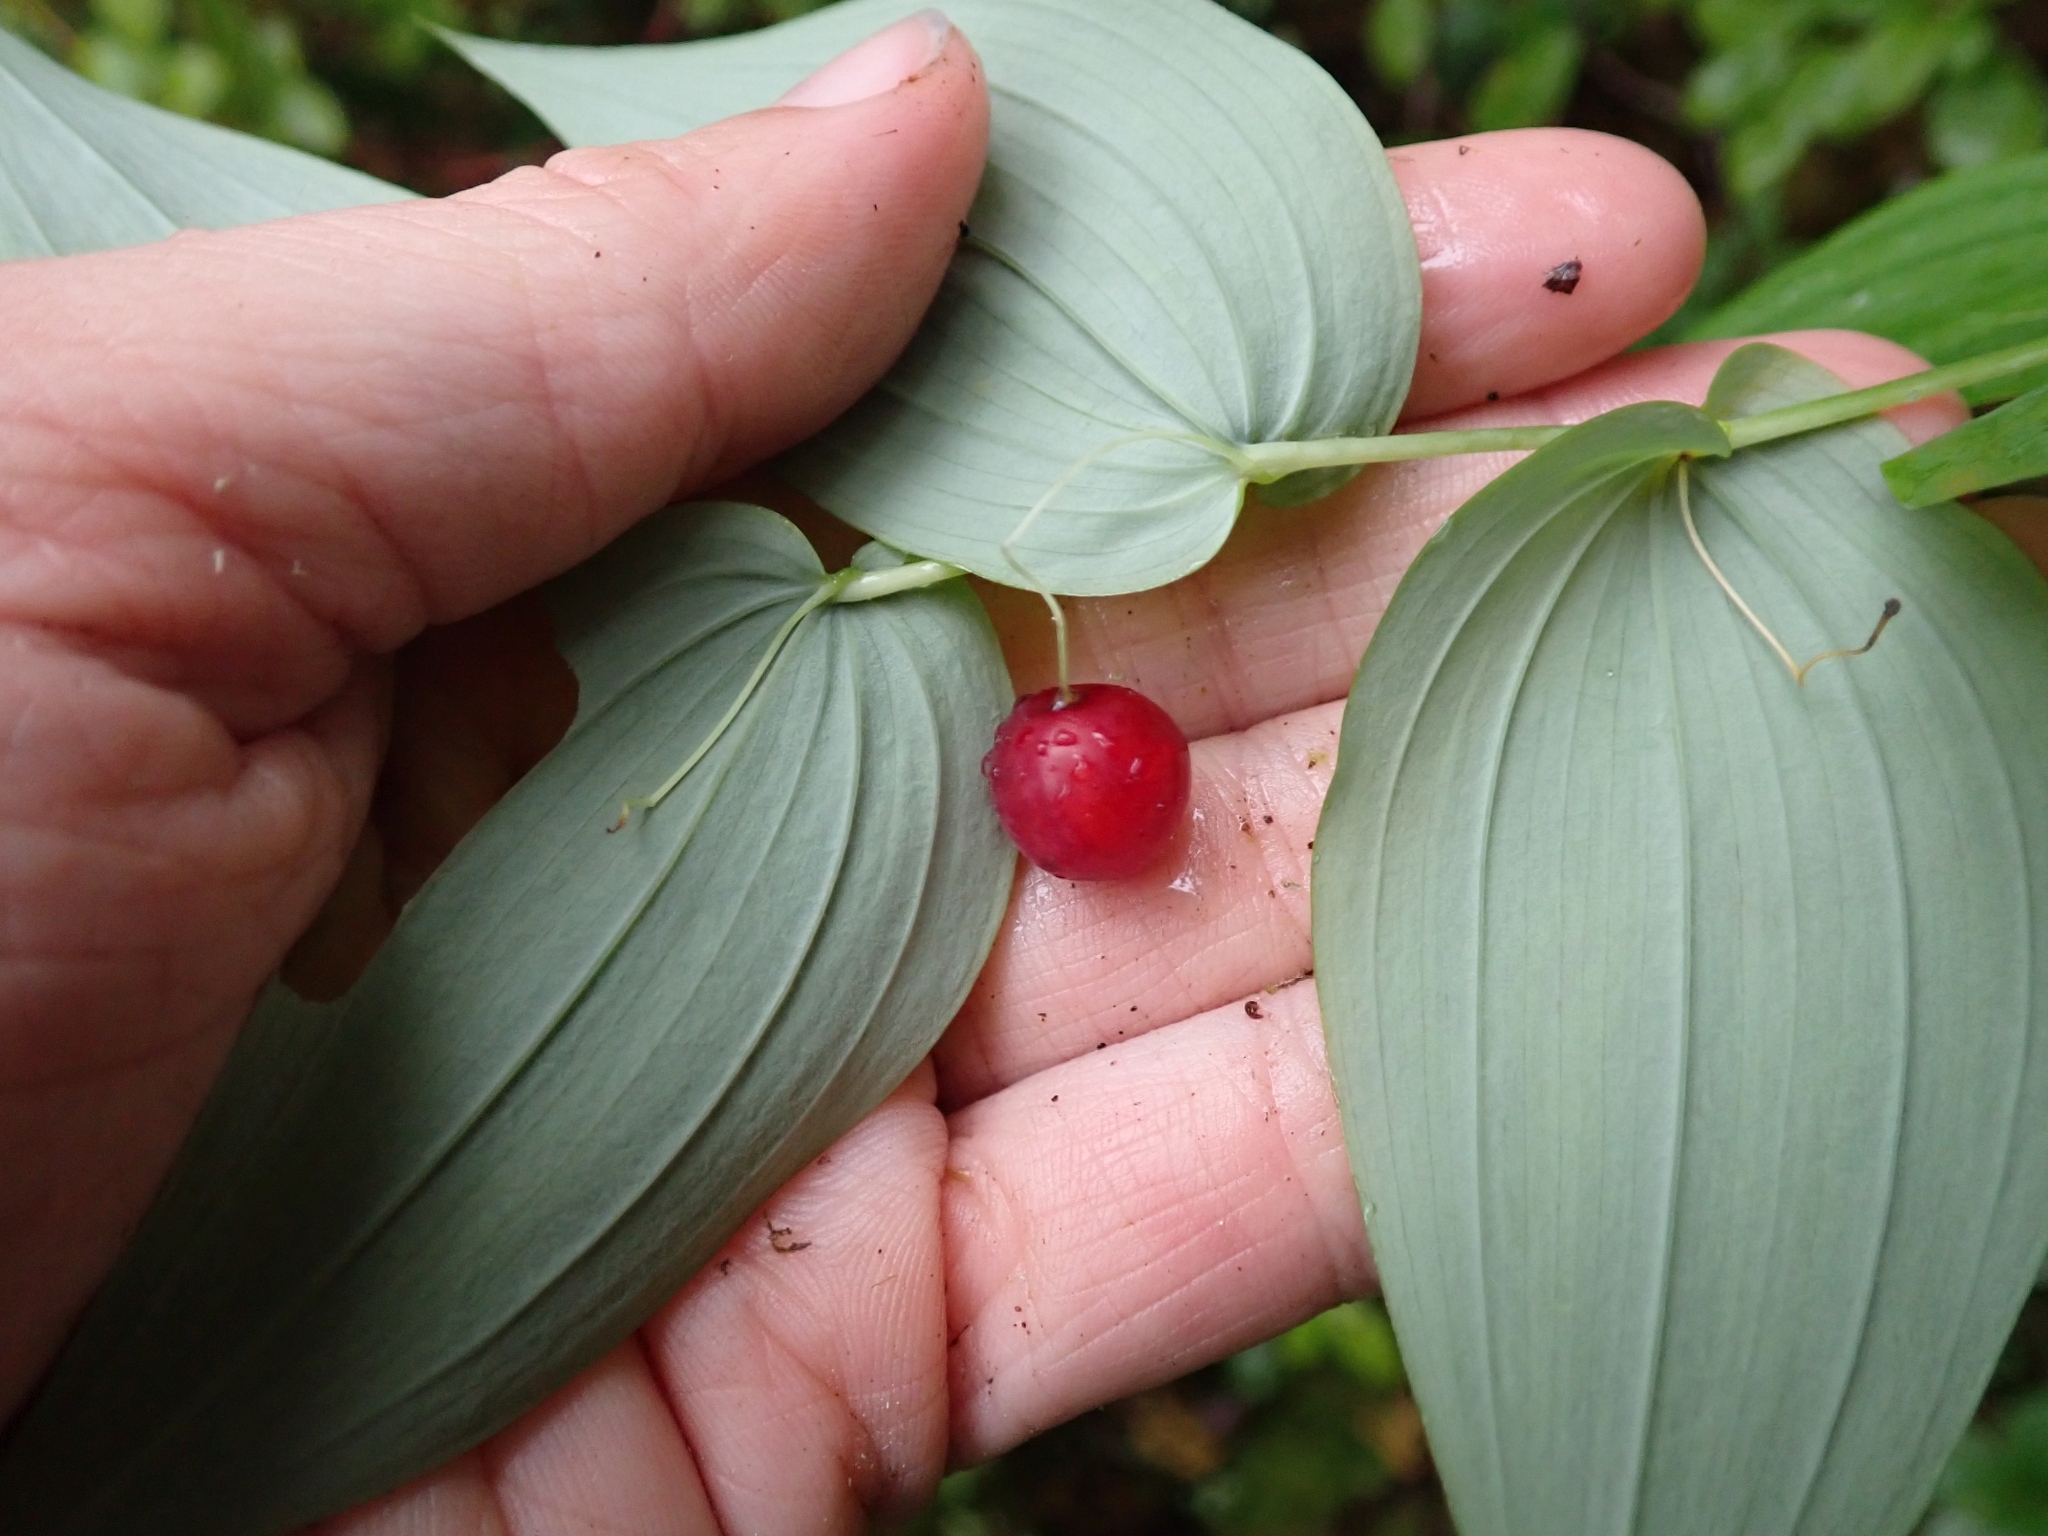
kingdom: Plantae
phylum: Tracheophyta
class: Liliopsida
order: Liliales
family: Liliaceae
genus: Streptopus
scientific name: Streptopus amplexifolius
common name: Clasp twisted stalk
